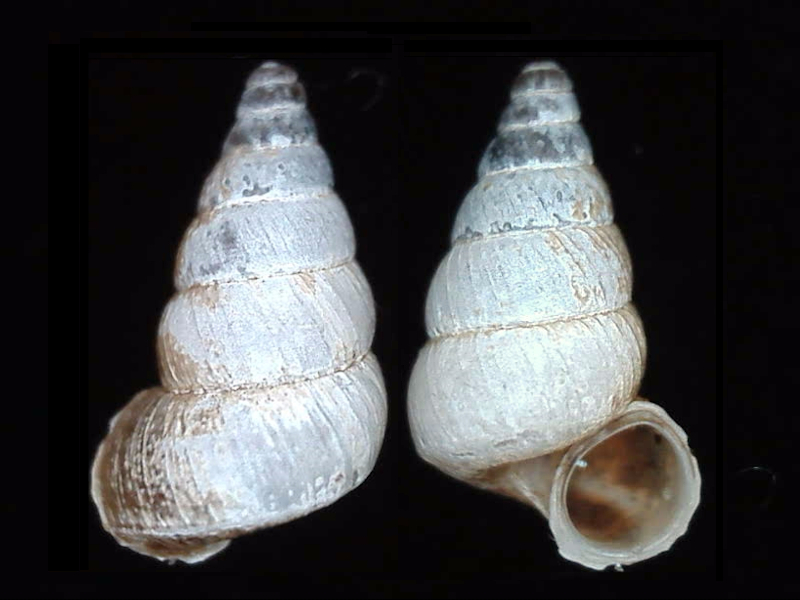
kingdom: Animalia
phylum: Mollusca
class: Gastropoda
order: Architaenioglossa
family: Pupinidae
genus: Liarea
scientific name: Liarea hochstetteri
